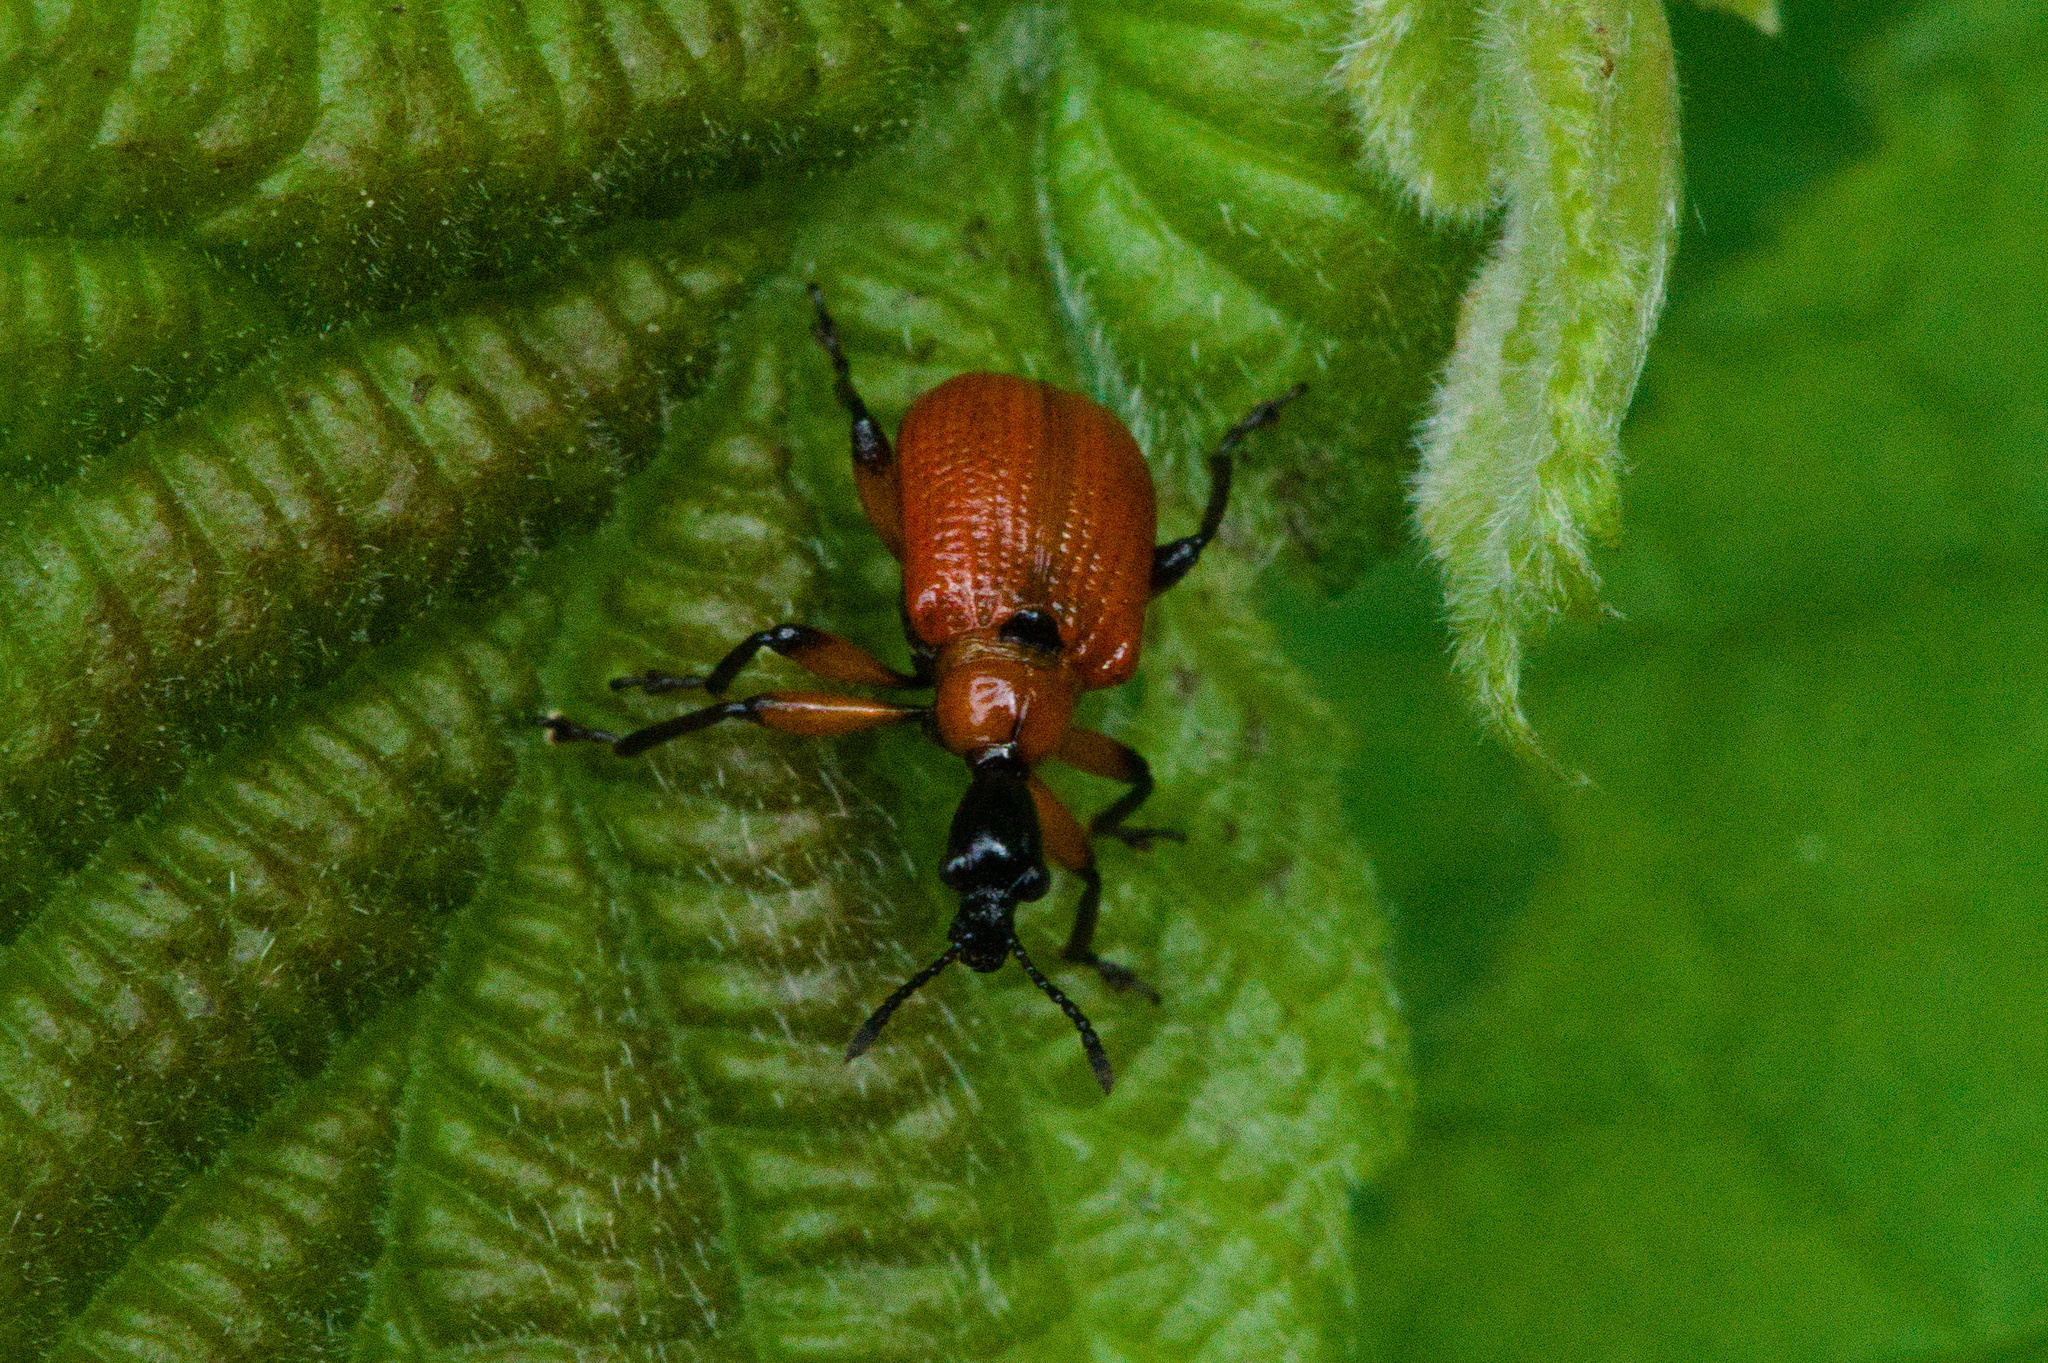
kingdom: Animalia
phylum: Arthropoda
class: Insecta
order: Coleoptera
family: Attelabidae
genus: Apoderus
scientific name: Apoderus coryli
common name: Hazel leaf roller
